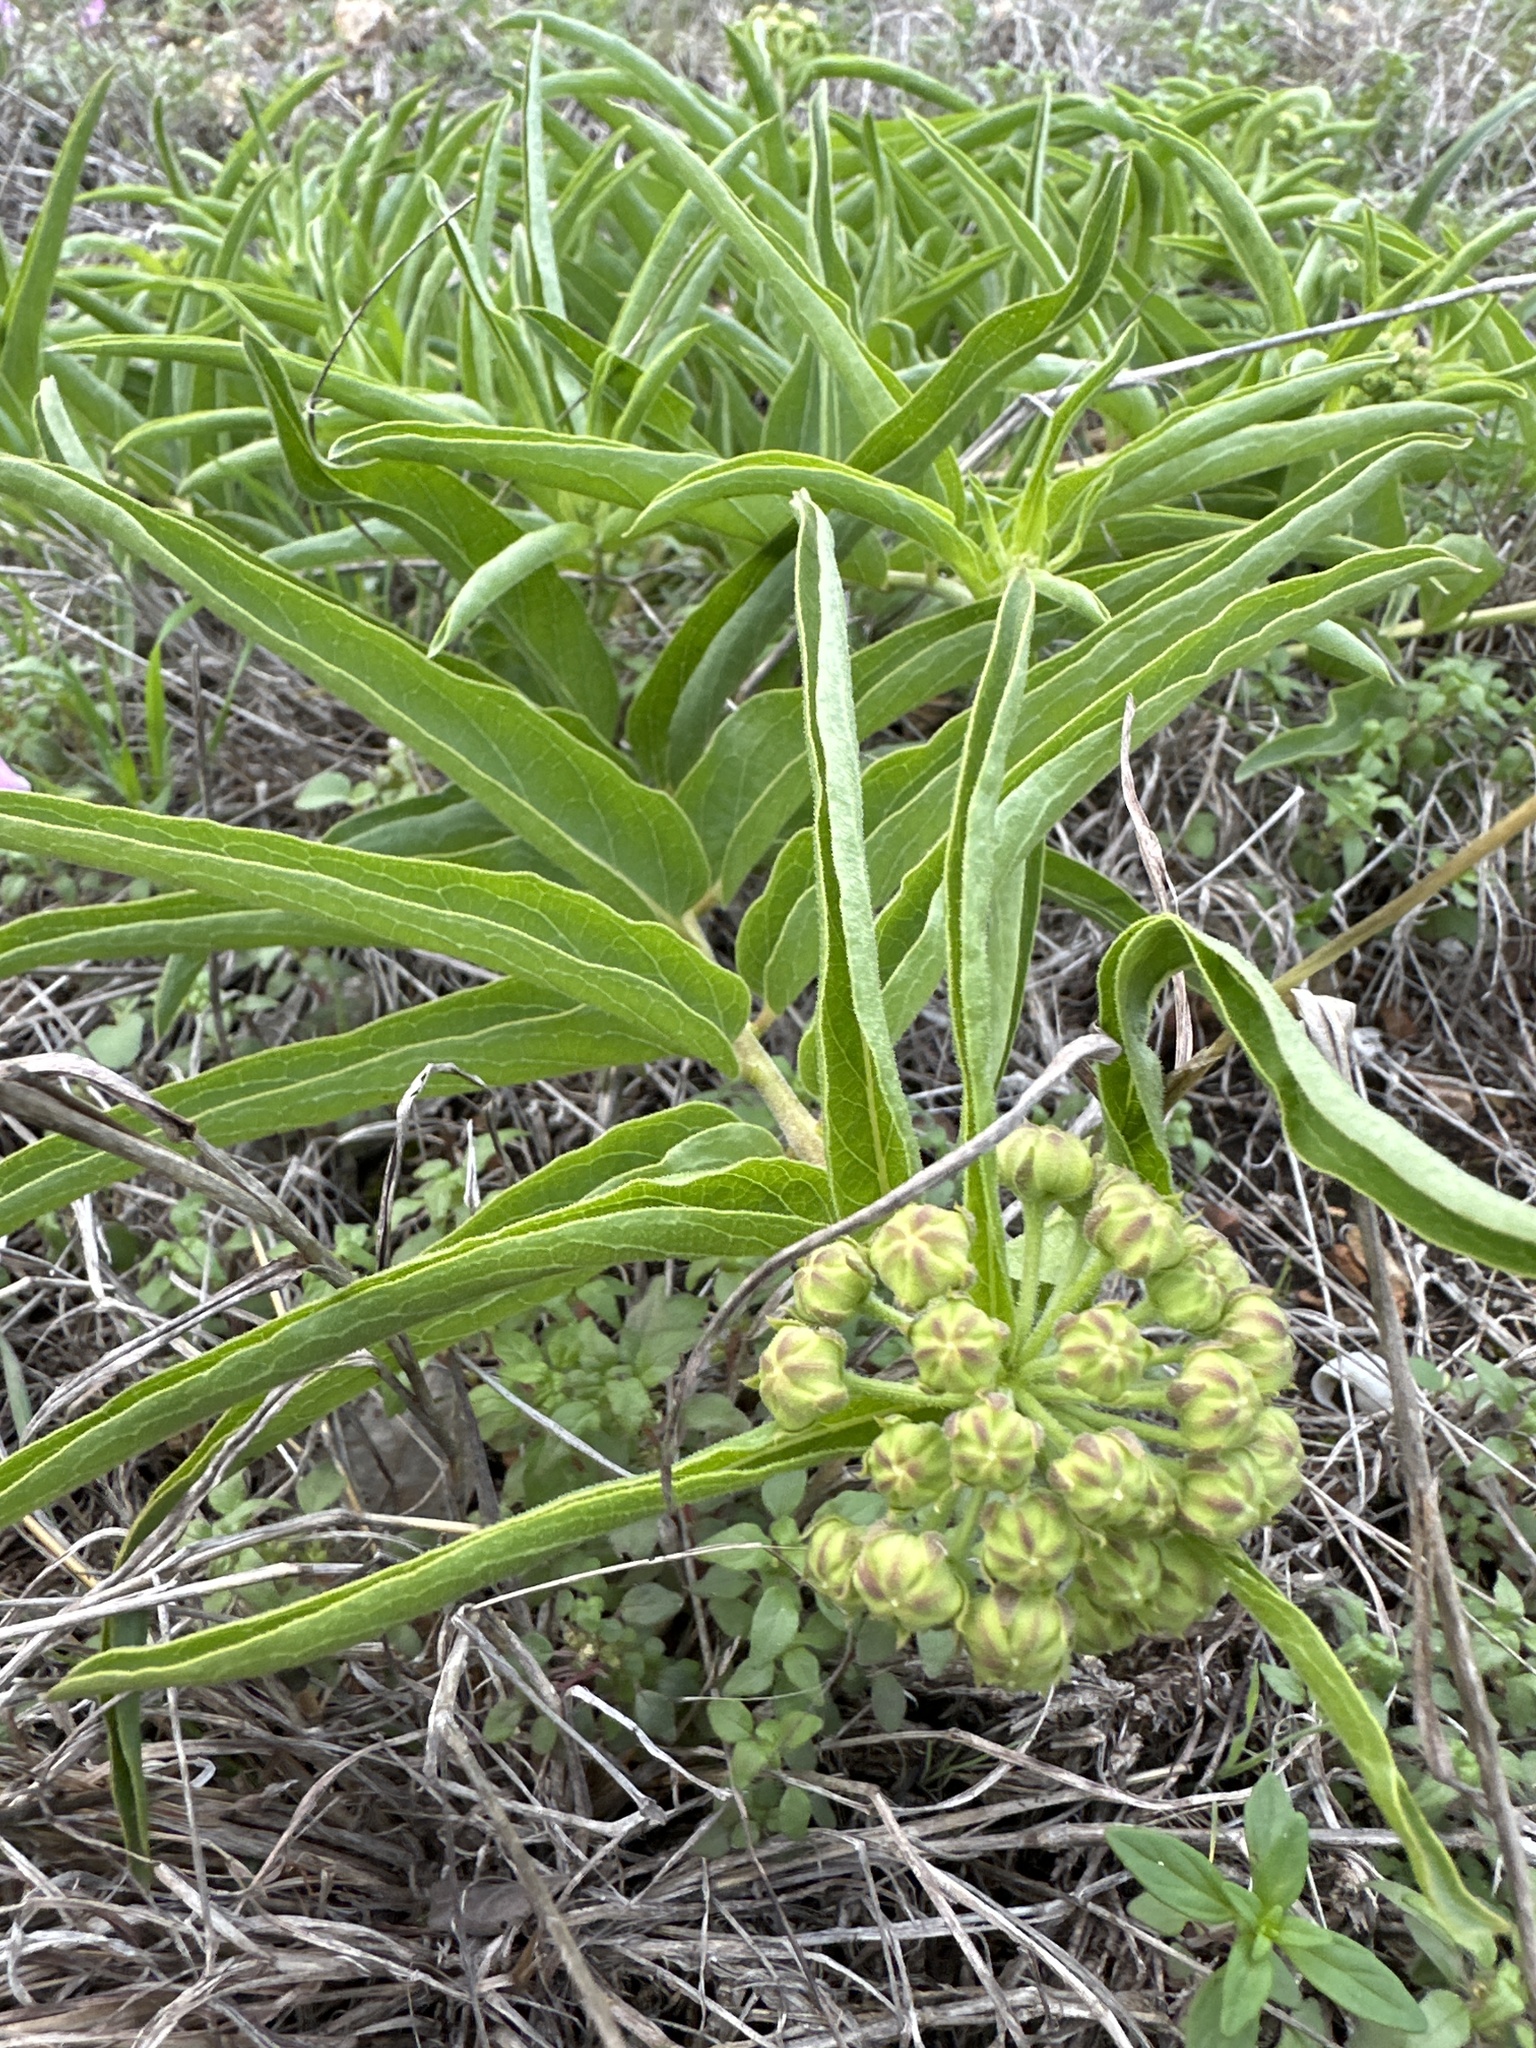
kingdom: Plantae
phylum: Tracheophyta
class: Magnoliopsida
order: Gentianales
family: Apocynaceae
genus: Asclepias
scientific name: Asclepias asperula
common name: Antelope horns
